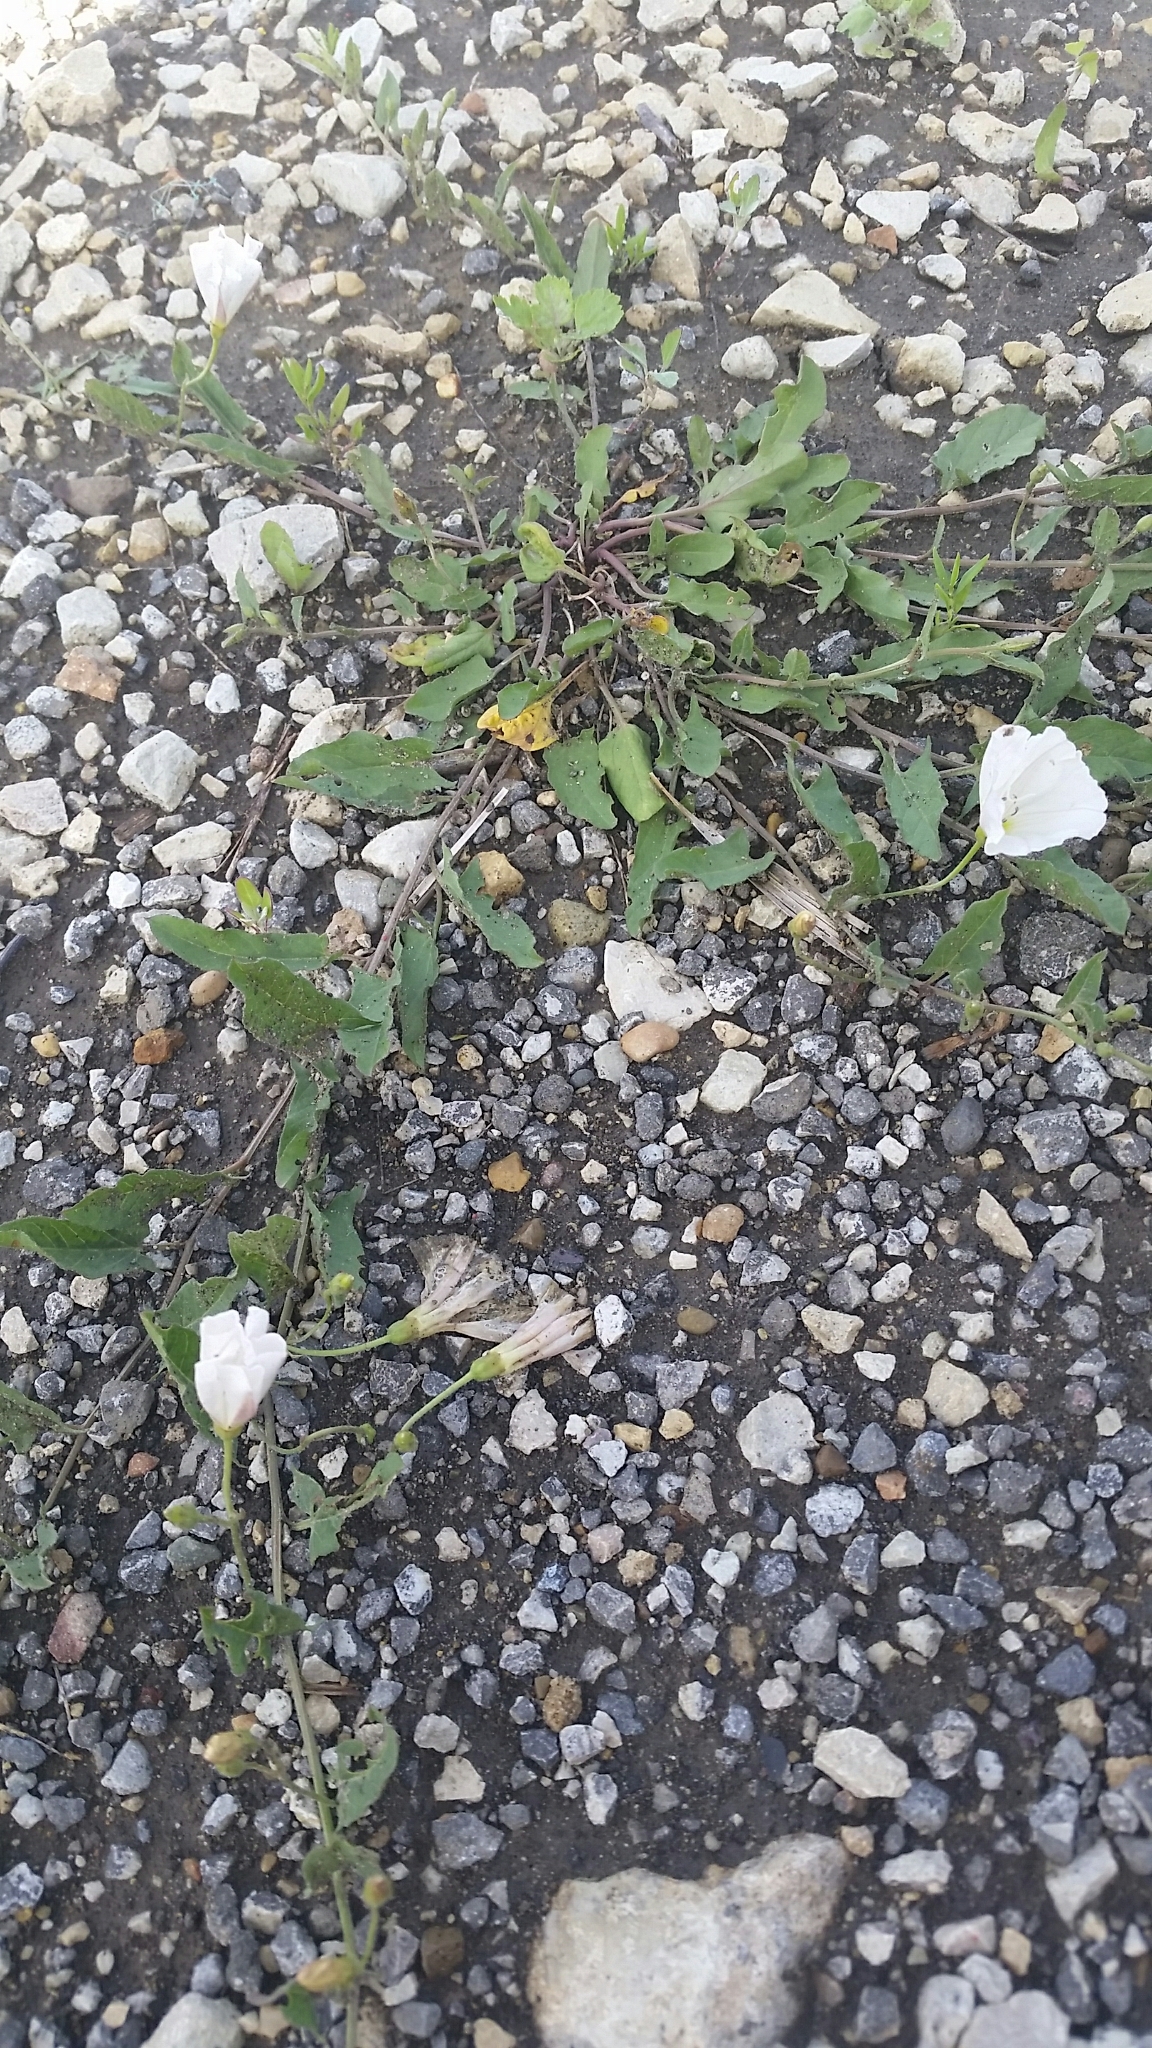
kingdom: Plantae
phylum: Tracheophyta
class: Magnoliopsida
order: Solanales
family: Convolvulaceae
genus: Convolvulus
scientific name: Convolvulus arvensis
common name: Field bindweed
